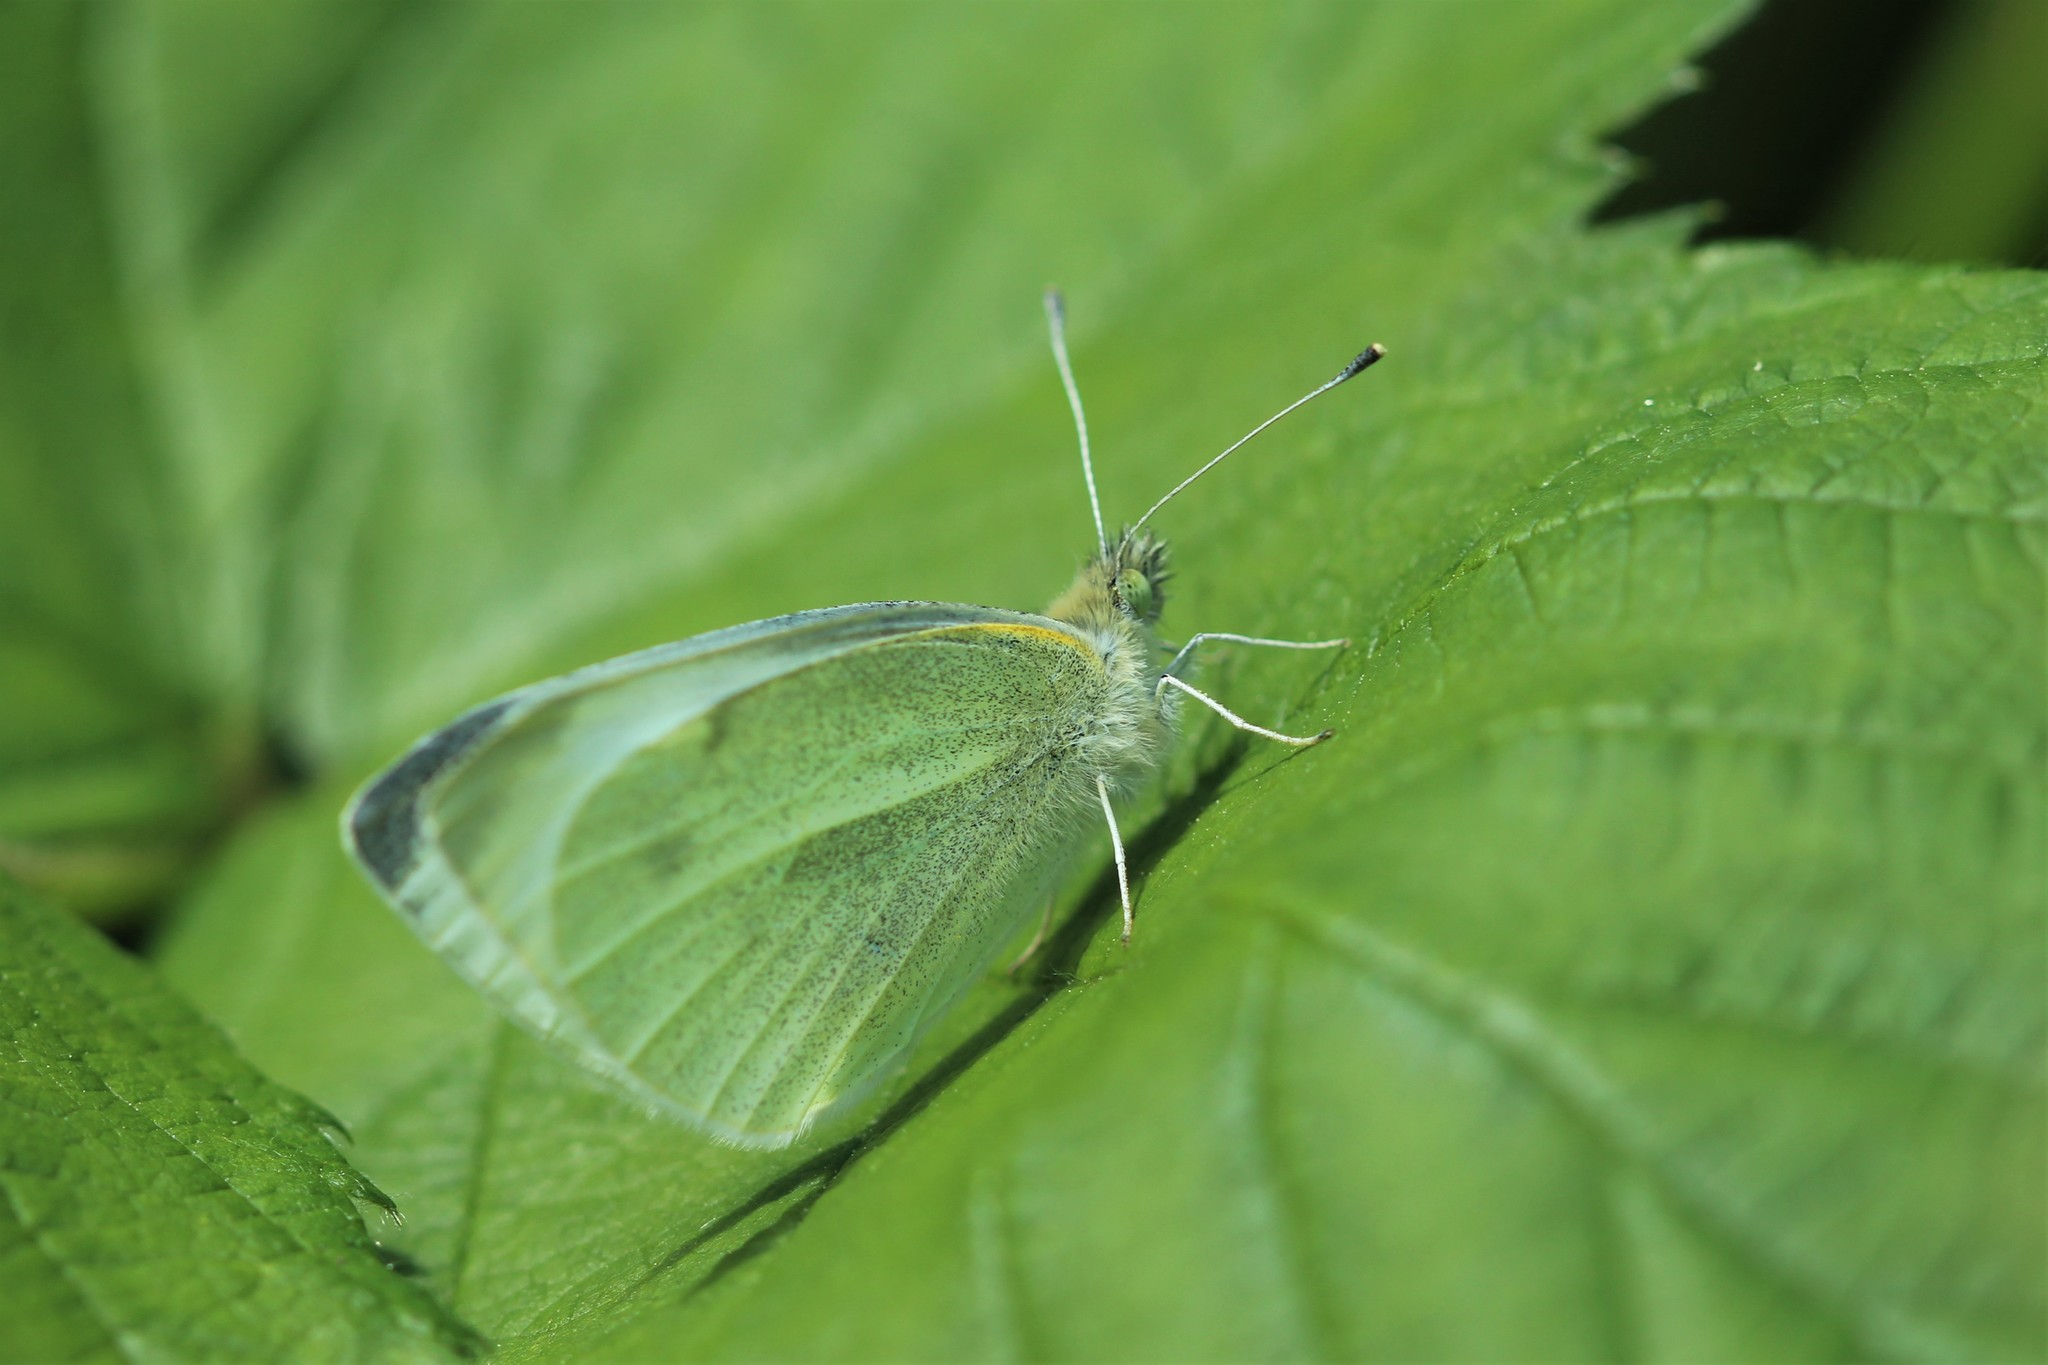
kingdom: Animalia
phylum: Arthropoda
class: Insecta
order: Lepidoptera
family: Pieridae
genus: Pieris
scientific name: Pieris rapae
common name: Small white
